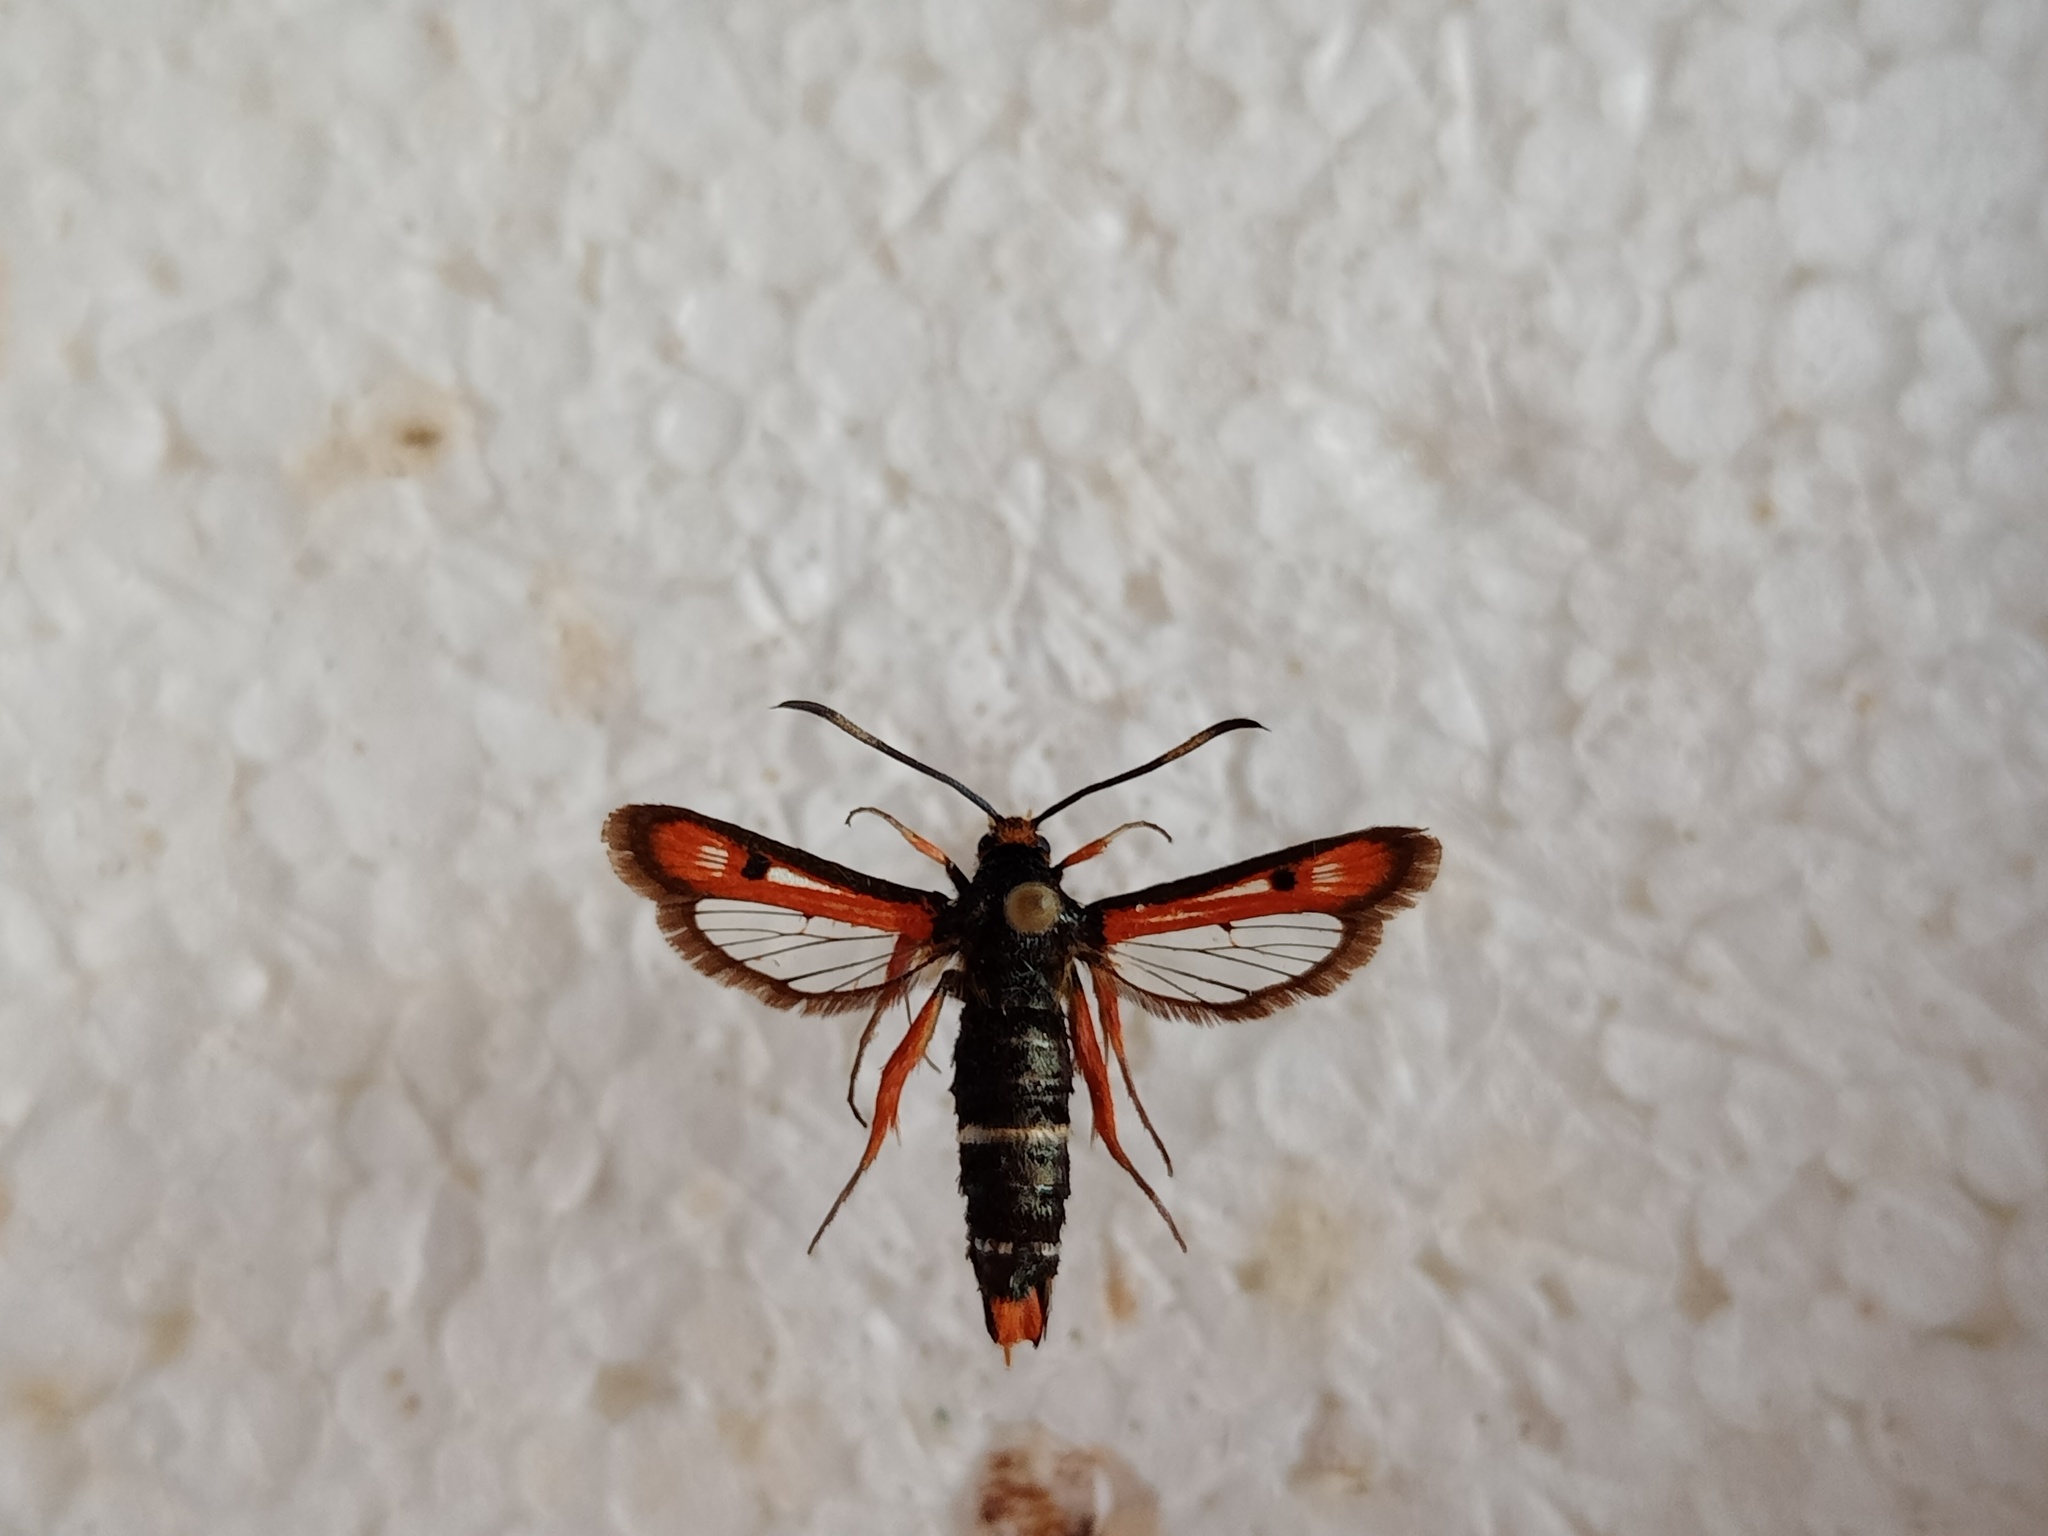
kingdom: Animalia
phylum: Arthropoda
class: Insecta
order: Lepidoptera
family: Sesiidae
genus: Pyropteron
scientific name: Pyropteron chrysidiforme
